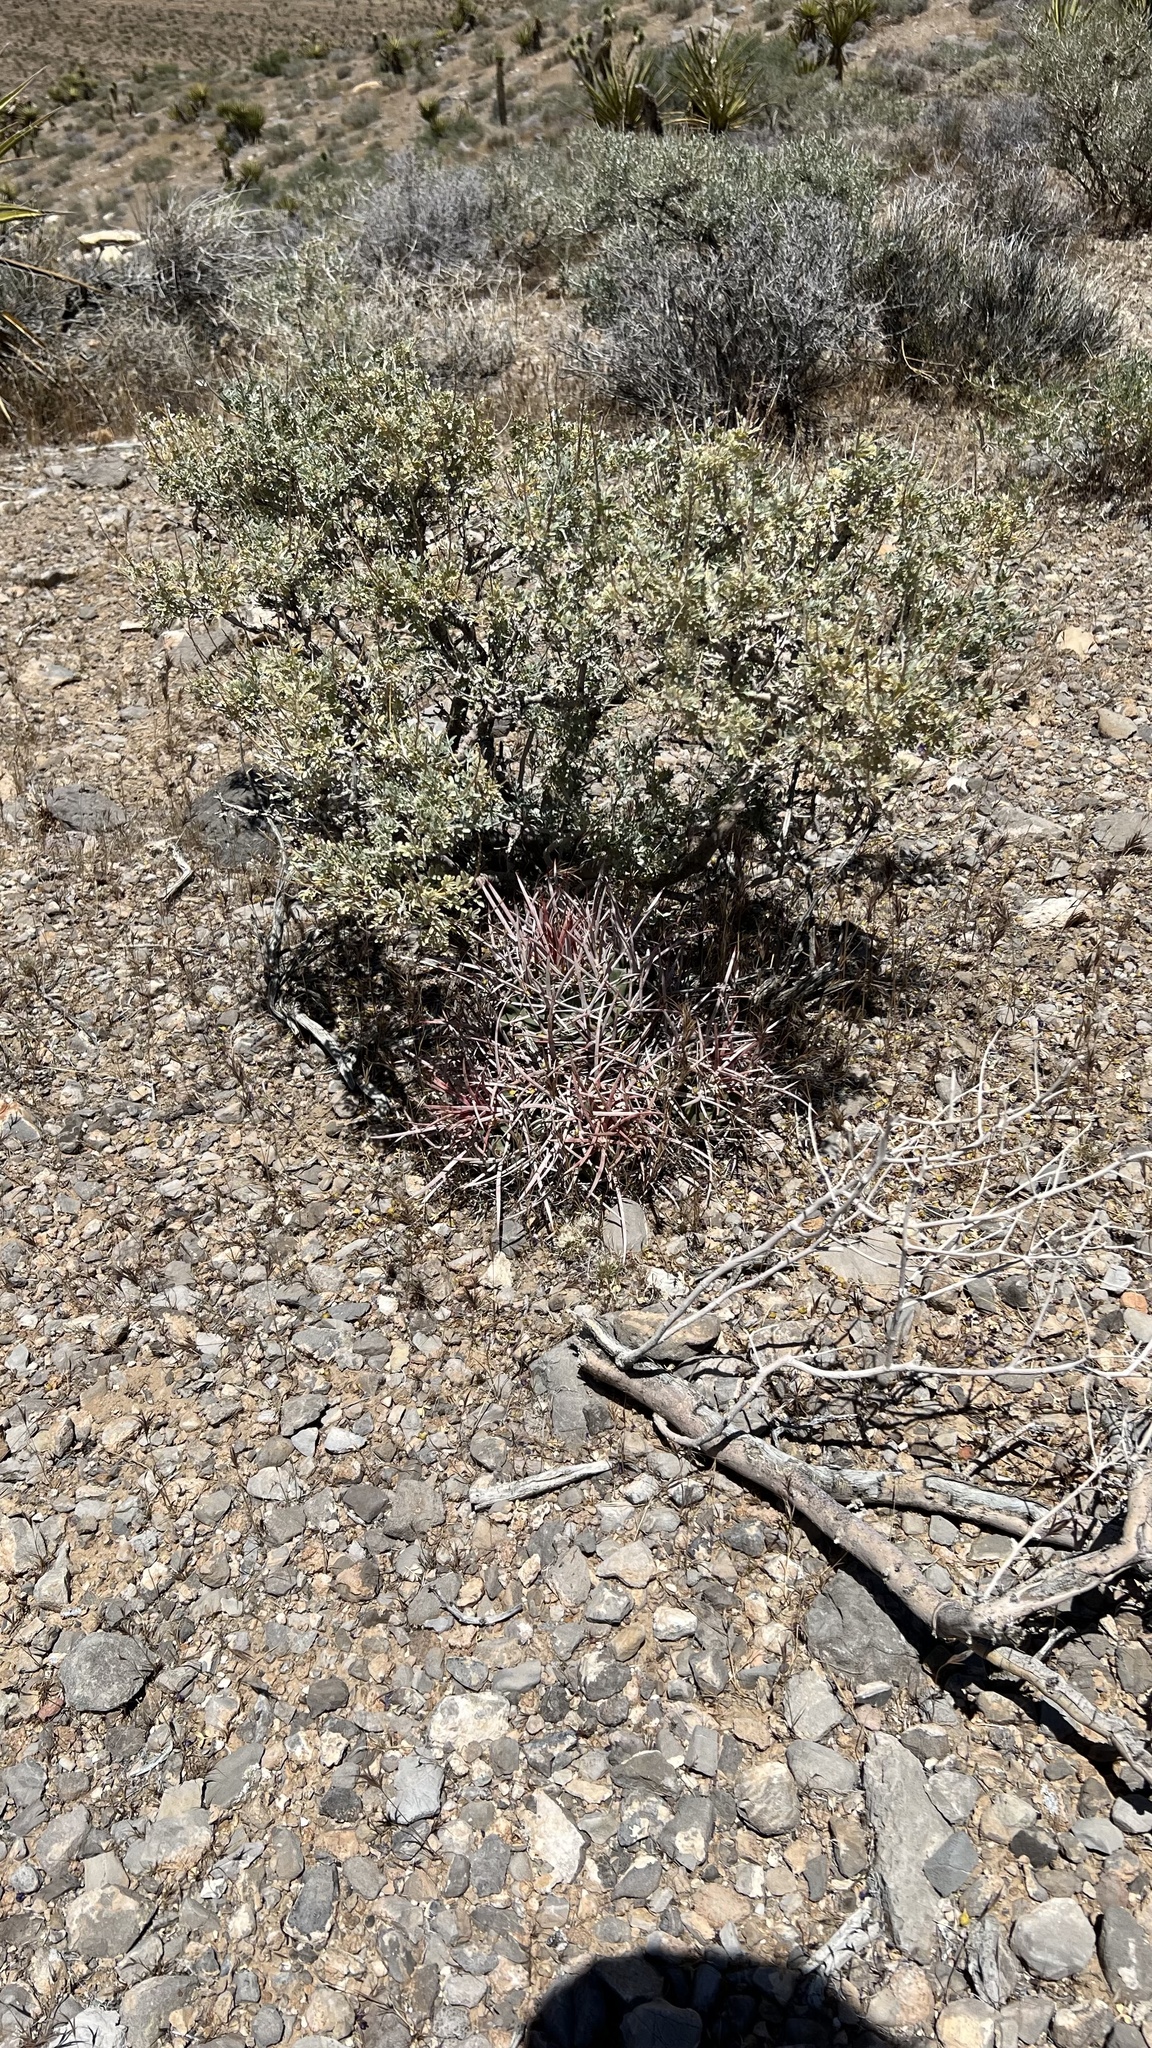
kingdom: Plantae
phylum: Tracheophyta
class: Magnoliopsida
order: Caryophyllales
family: Cactaceae
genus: Echinocactus
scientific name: Echinocactus polycephalus
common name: Cottontop cactus
